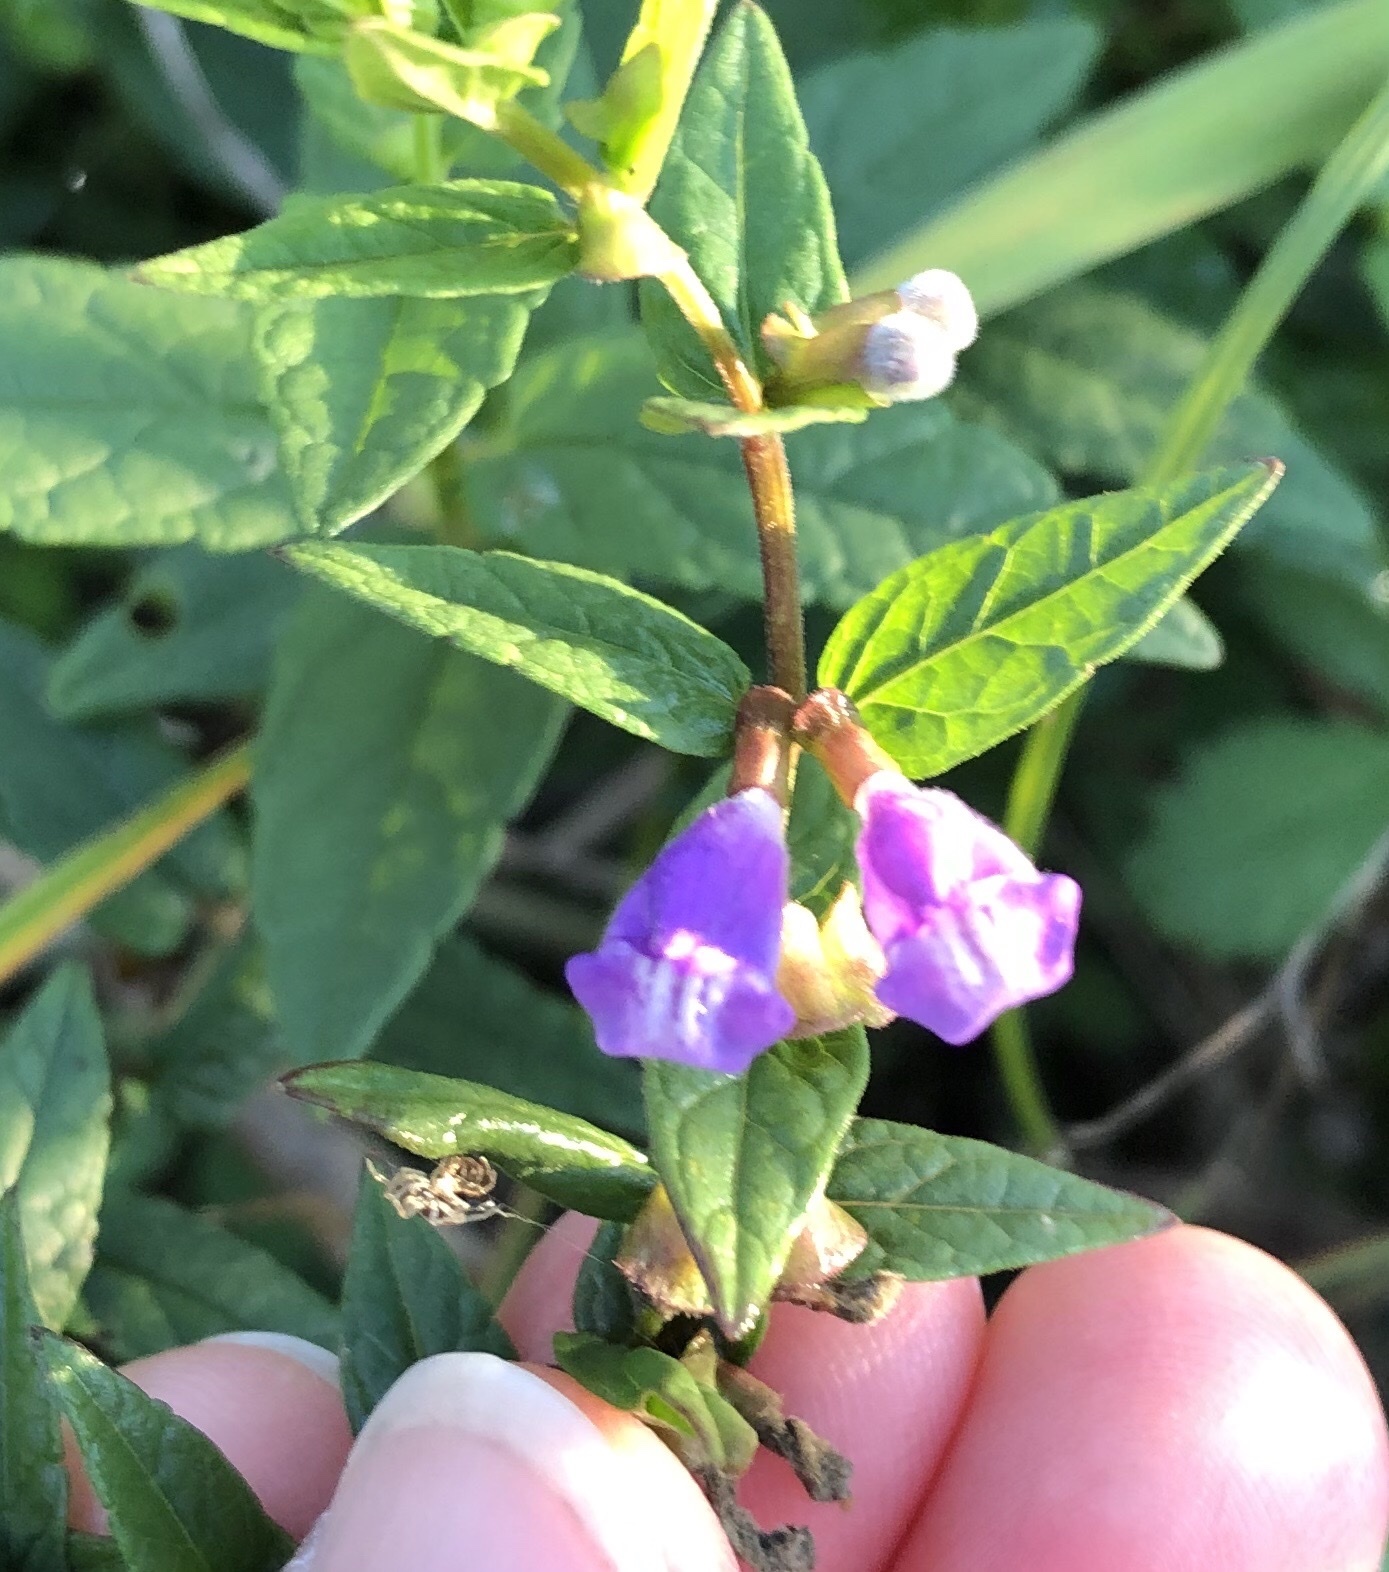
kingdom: Plantae
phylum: Tracheophyta
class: Magnoliopsida
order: Lamiales
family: Lamiaceae
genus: Scutellaria
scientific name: Scutellaria galericulata
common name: Skullcap
